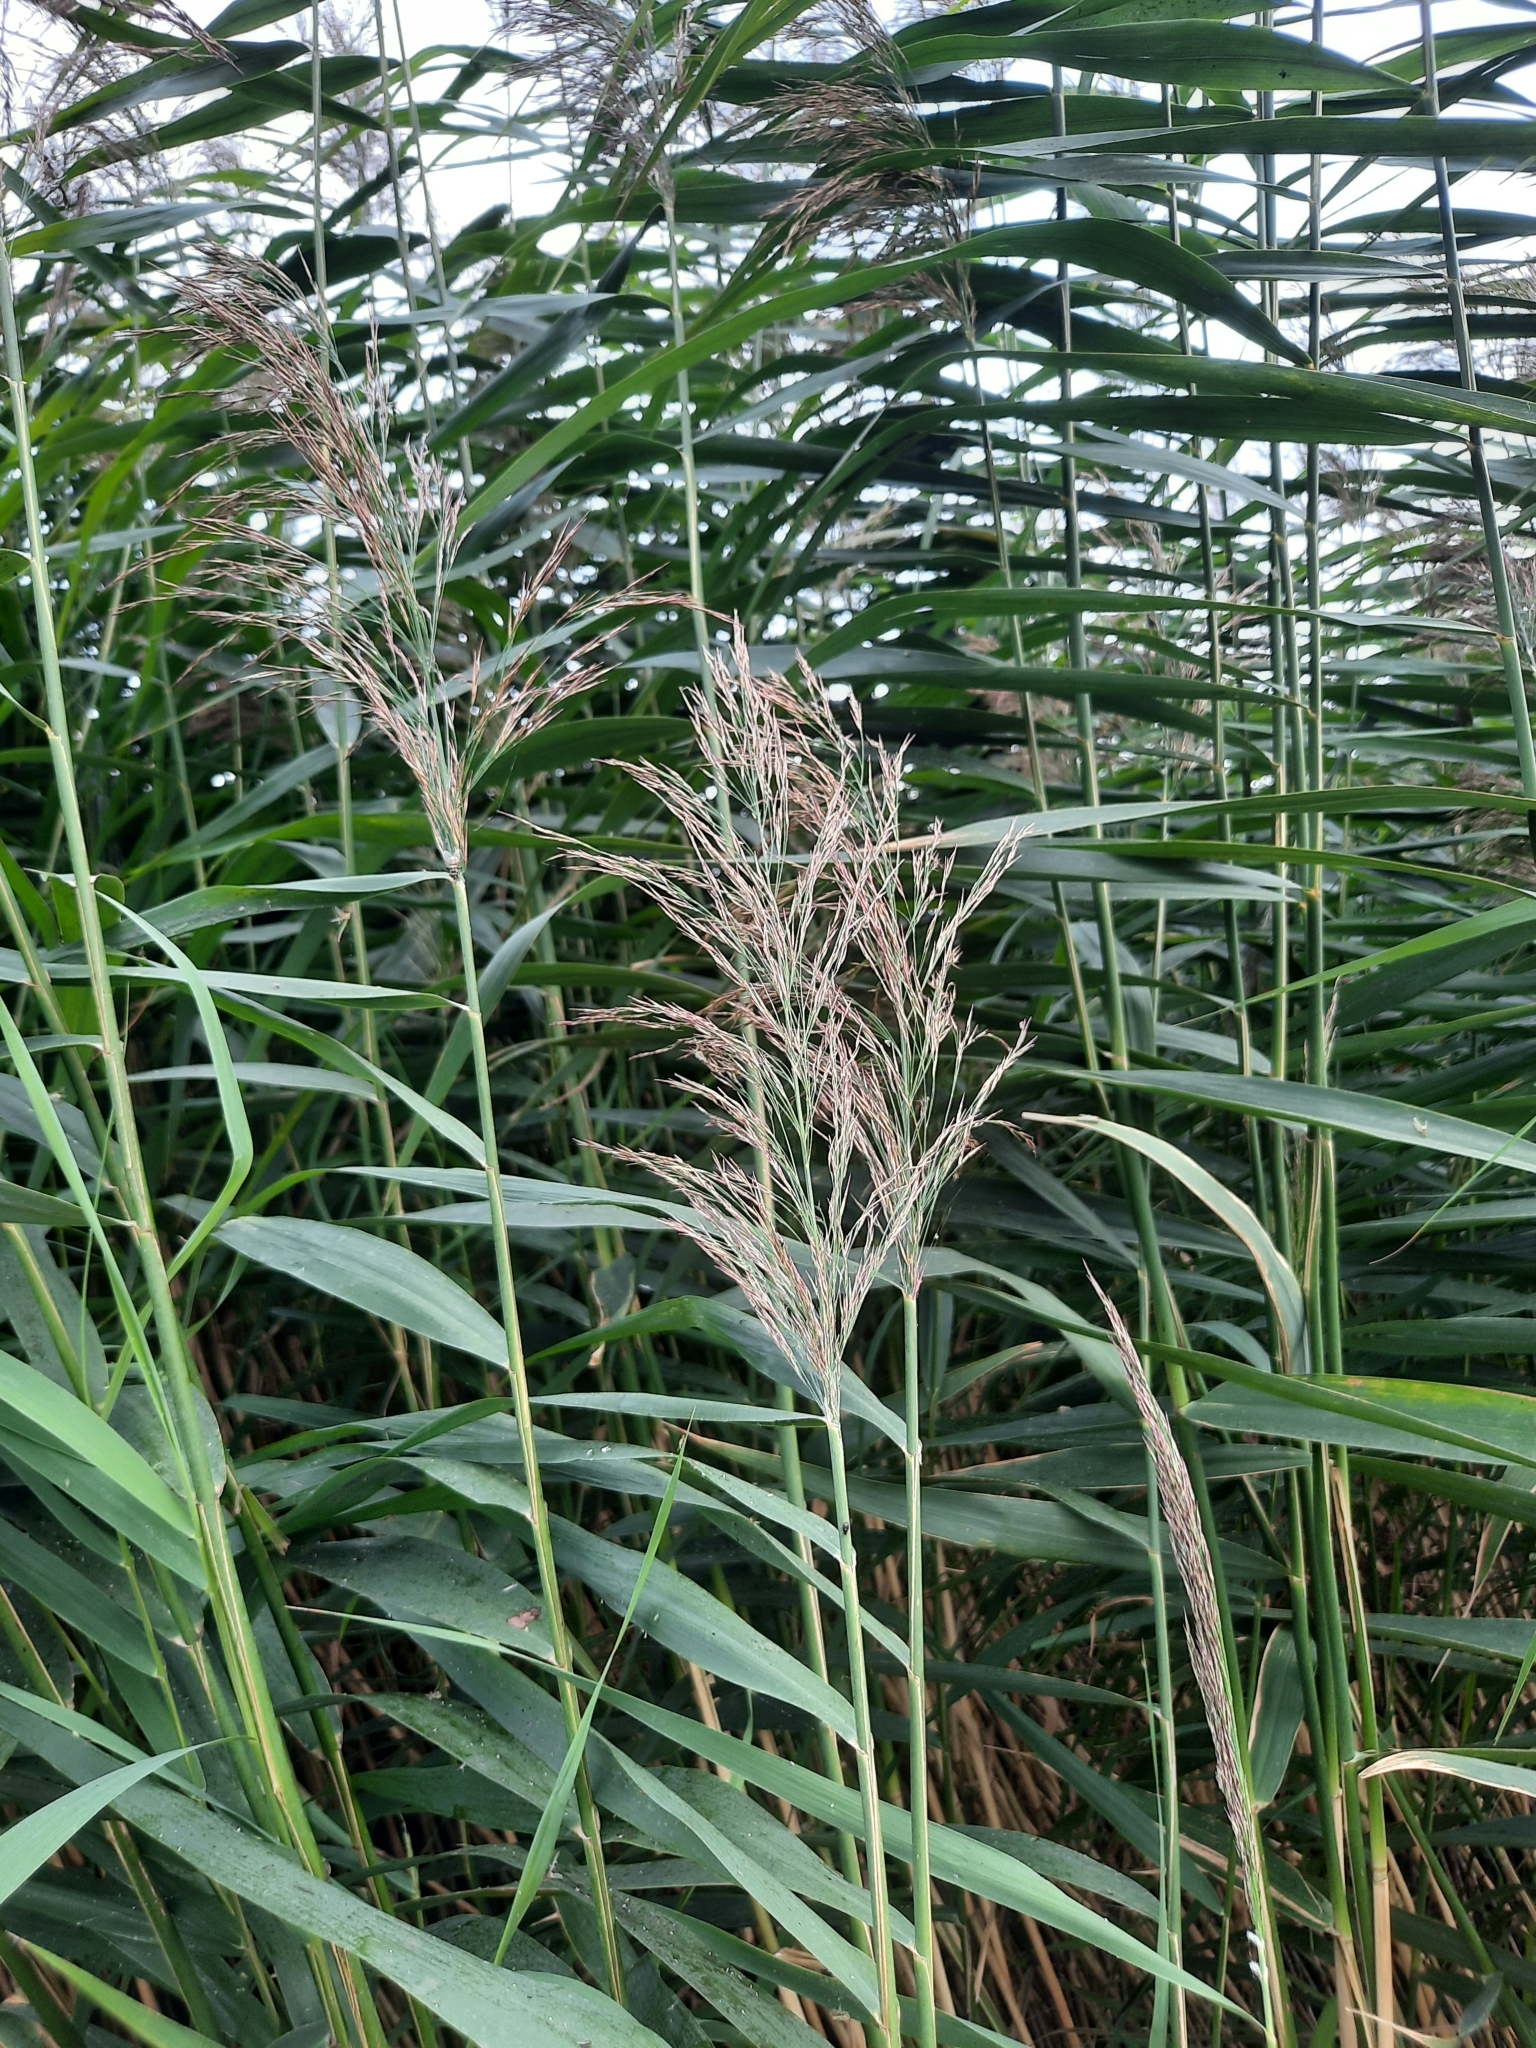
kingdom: Plantae
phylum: Tracheophyta
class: Liliopsida
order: Poales
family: Poaceae
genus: Phragmites
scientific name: Phragmites australis
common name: Common reed
